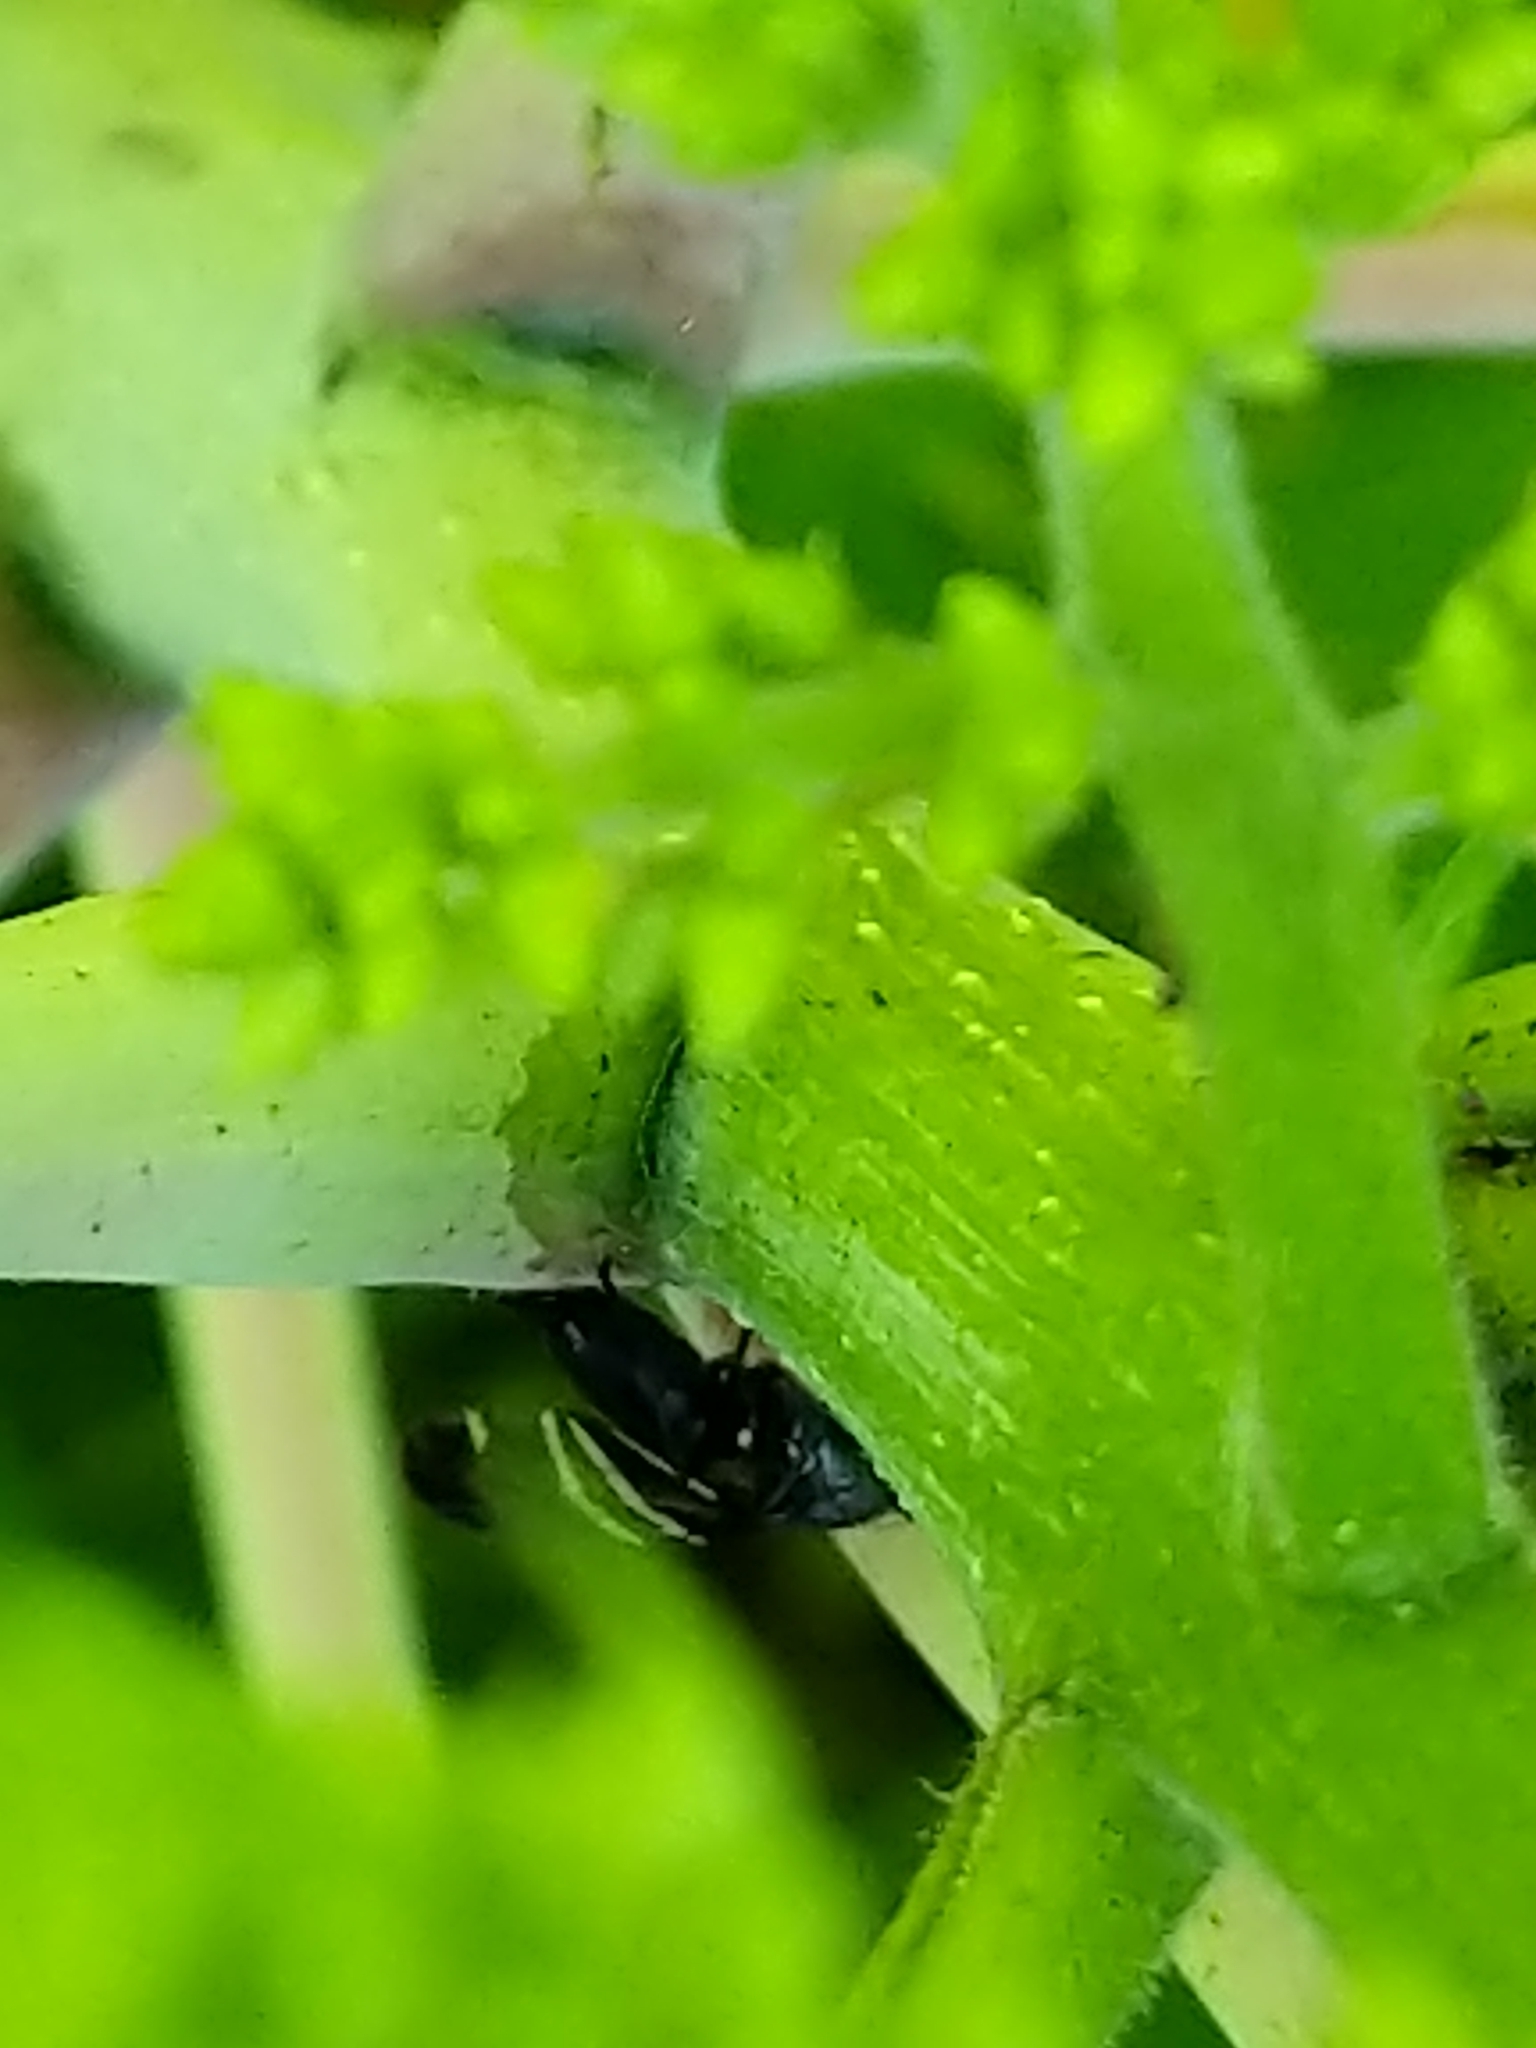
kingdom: Animalia
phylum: Arthropoda
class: Insecta
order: Diptera
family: Ulidiidae
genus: Tritoxa
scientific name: Tritoxa flexa
